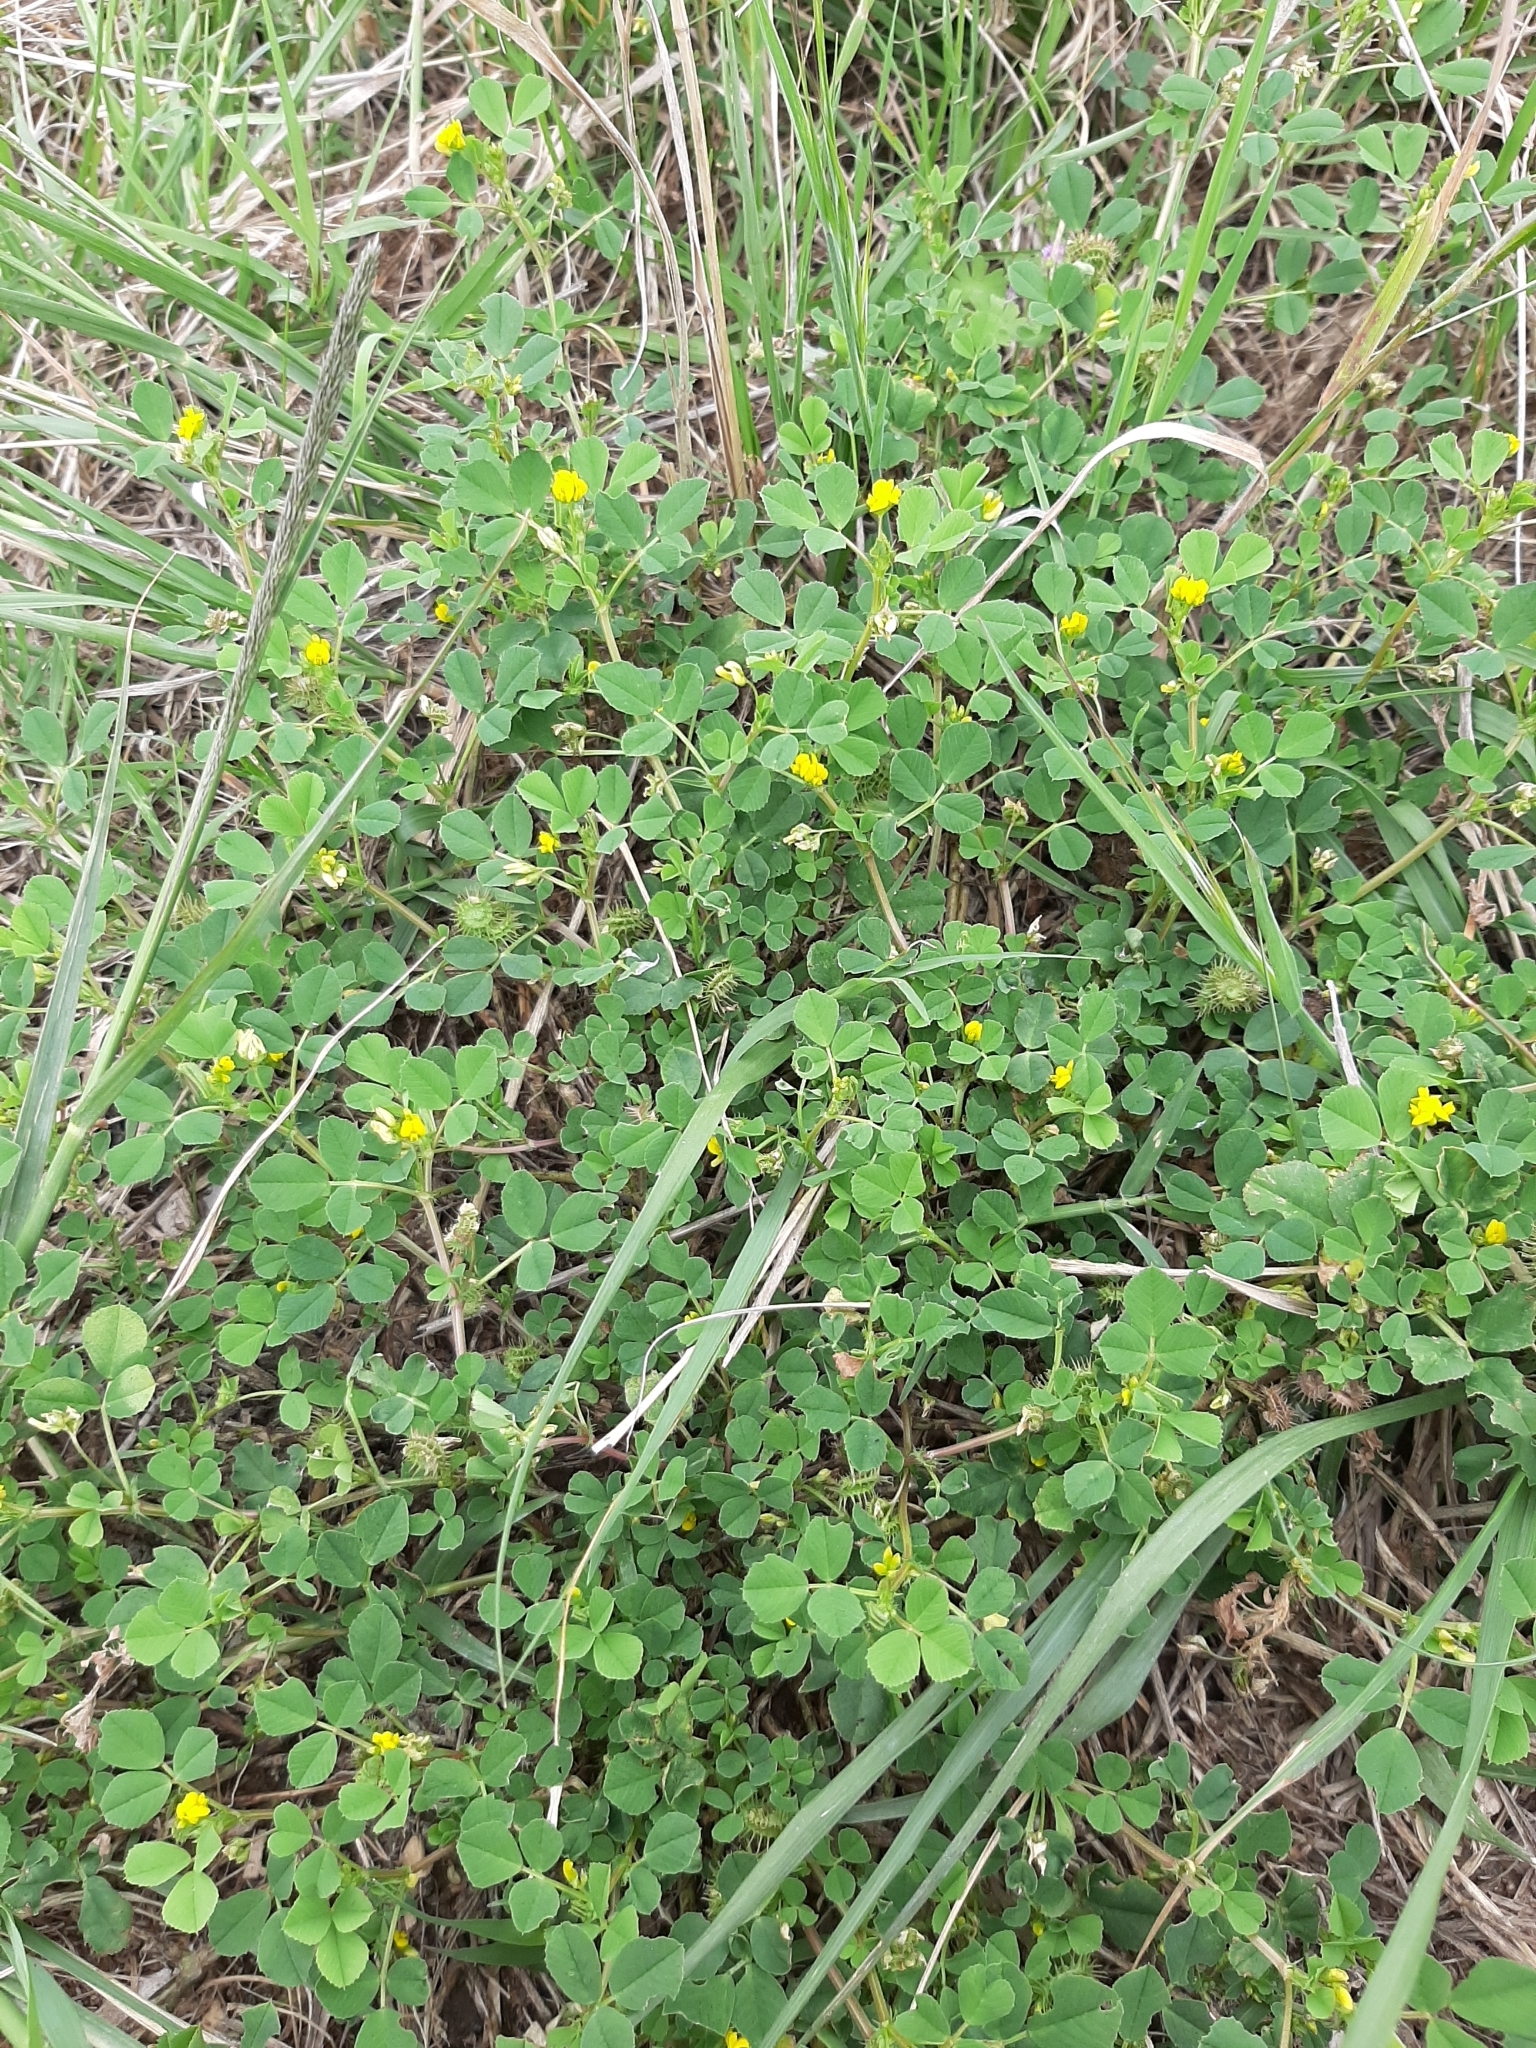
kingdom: Plantae
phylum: Tracheophyta
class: Magnoliopsida
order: Fabales
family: Fabaceae
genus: Medicago
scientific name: Medicago lupulina
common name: Black medick
